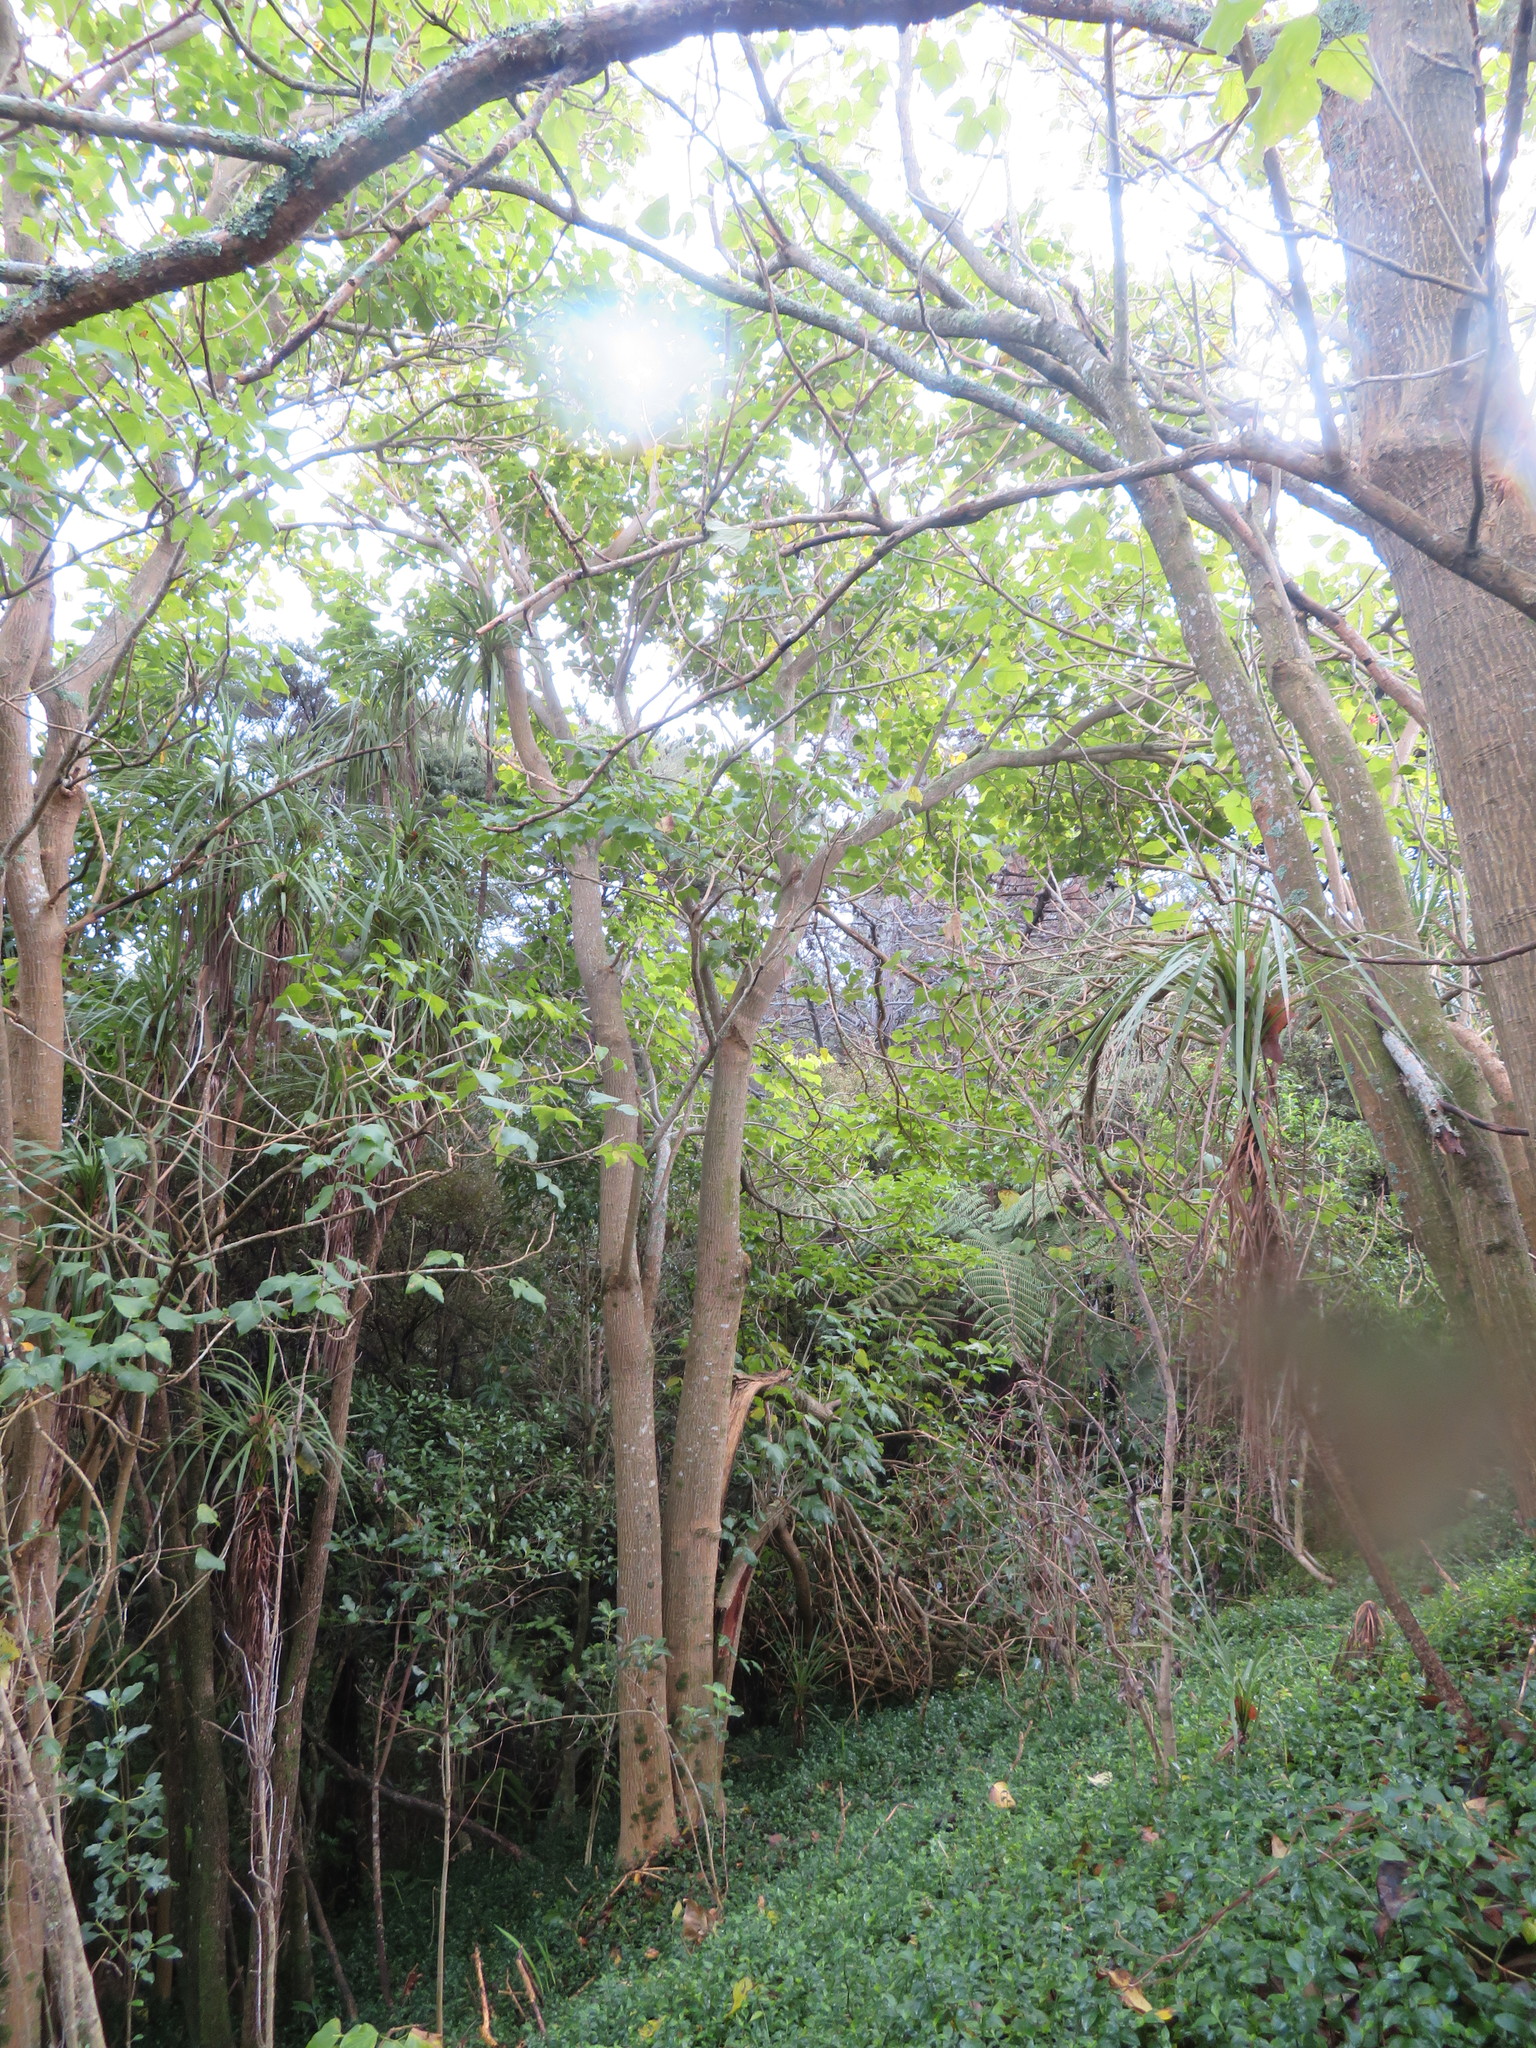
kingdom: Plantae
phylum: Tracheophyta
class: Liliopsida
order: Commelinales
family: Commelinaceae
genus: Tradescantia
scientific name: Tradescantia fluminensis
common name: Wandering-jew
